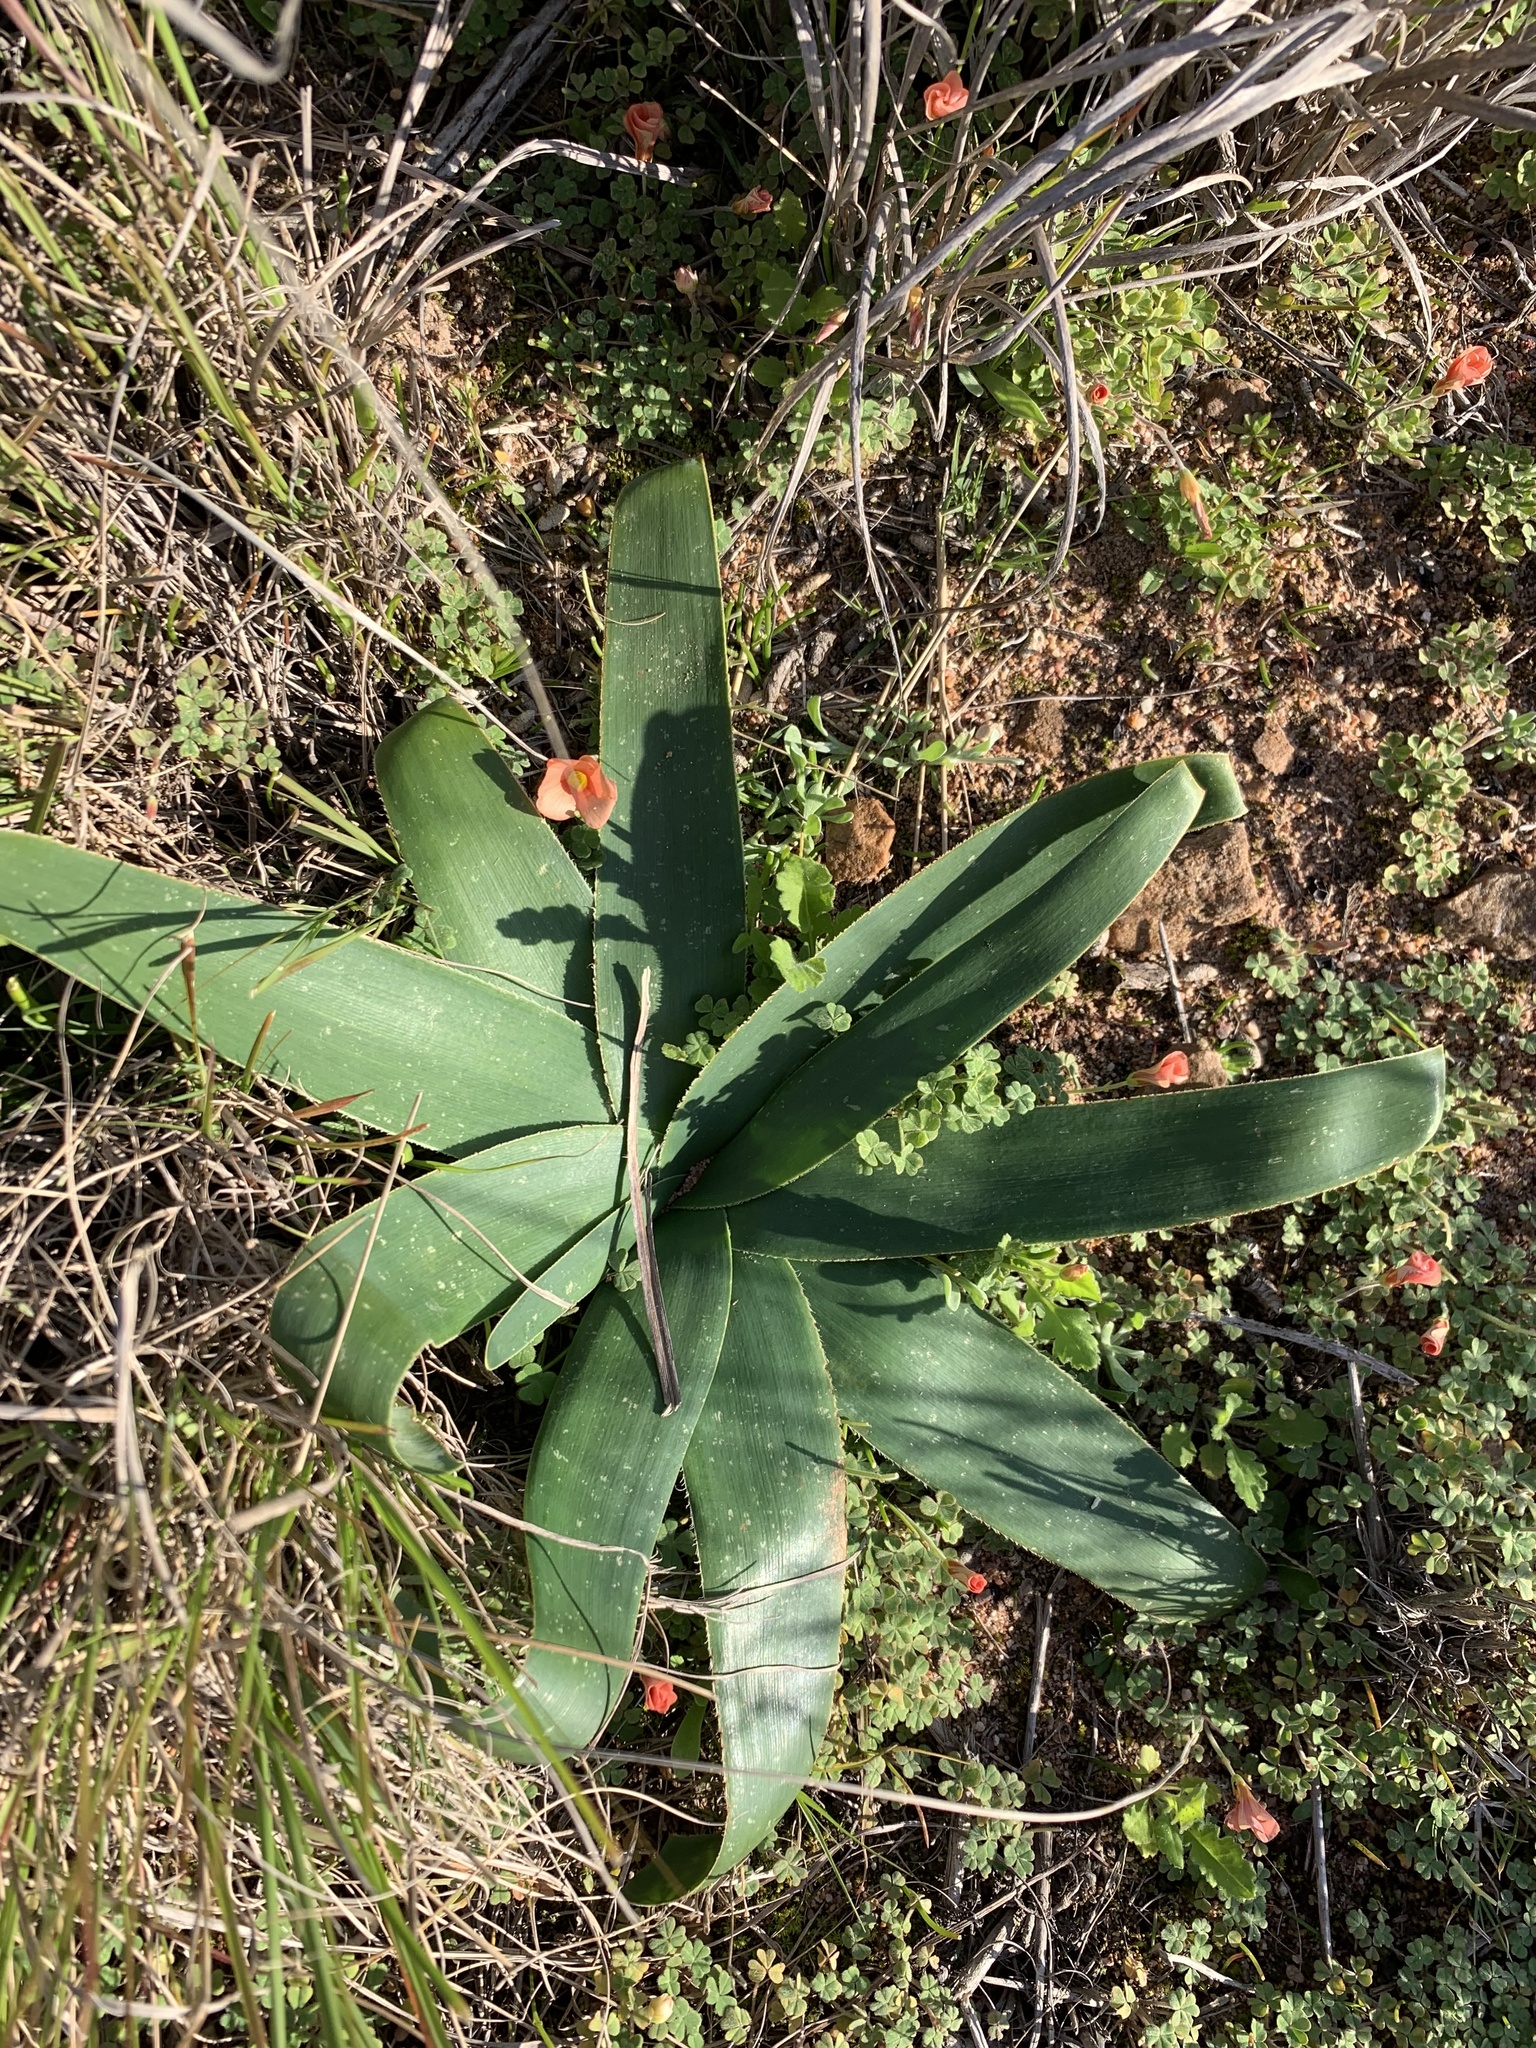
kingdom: Plantae
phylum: Tracheophyta
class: Liliopsida
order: Asparagales
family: Amaryllidaceae
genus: Ammocharis
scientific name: Ammocharis longifolia
